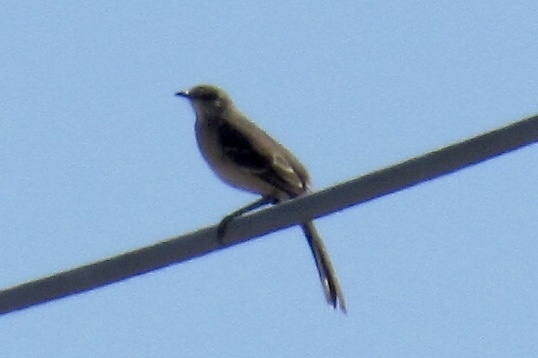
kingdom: Animalia
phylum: Chordata
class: Aves
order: Passeriformes
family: Mimidae
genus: Mimus
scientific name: Mimus polyglottos
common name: Northern mockingbird
